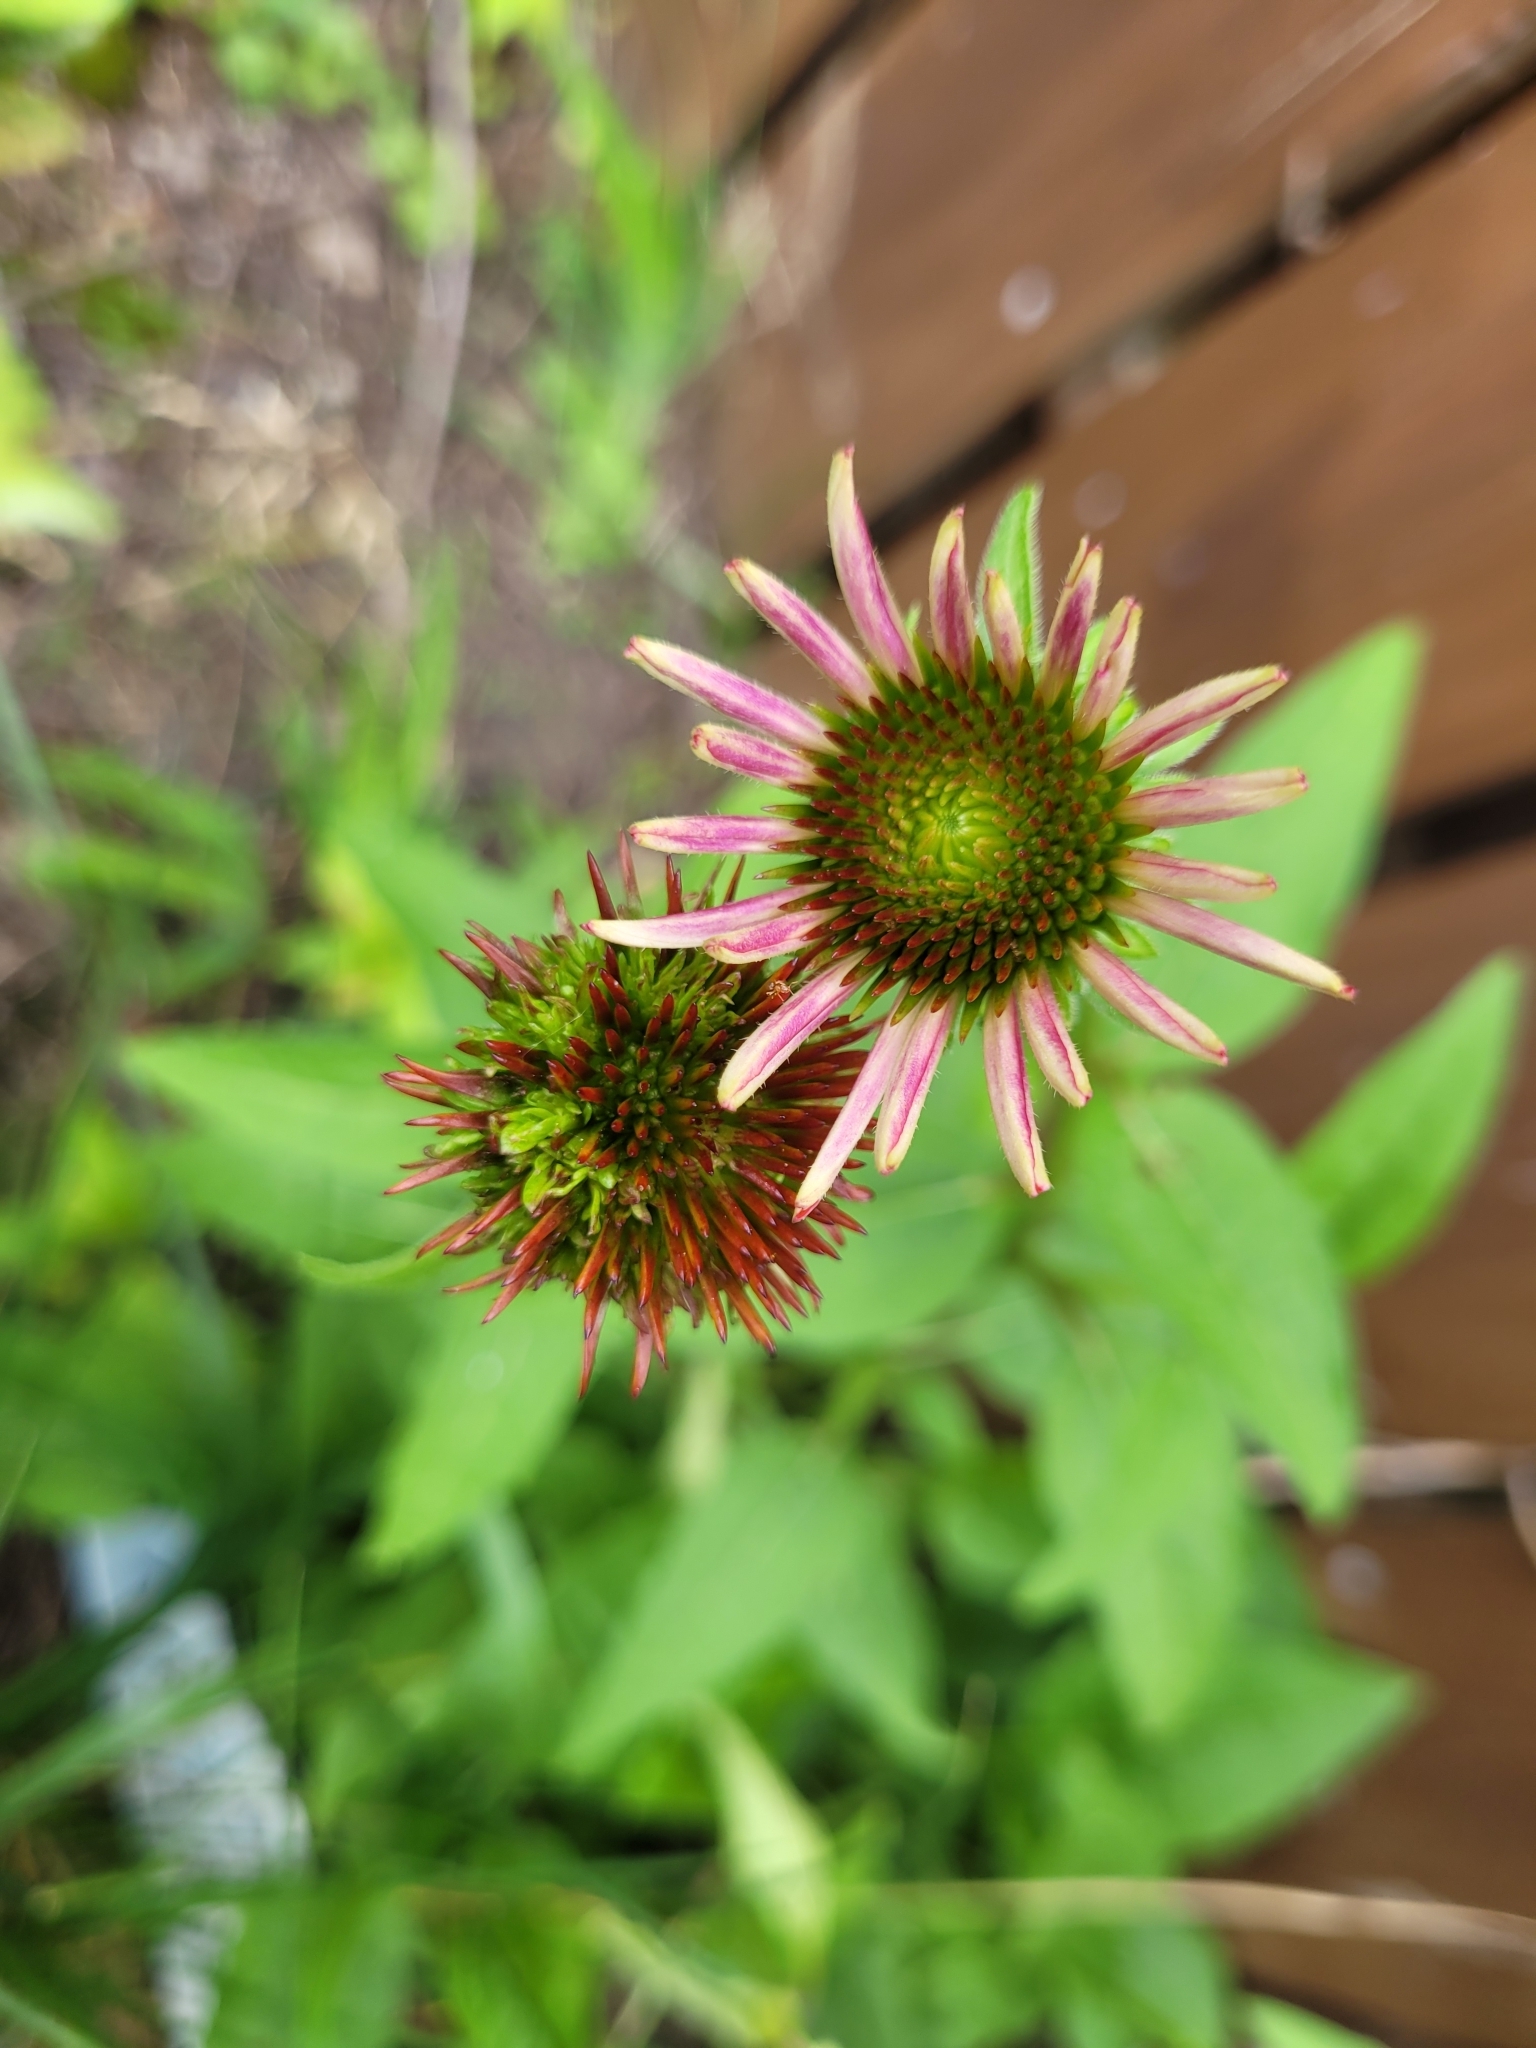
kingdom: Bacteria
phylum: Firmicutes
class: Bacilli
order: Acholeplasmatales
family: Acholeplasmataceae
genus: Phytoplasma
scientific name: Phytoplasma
